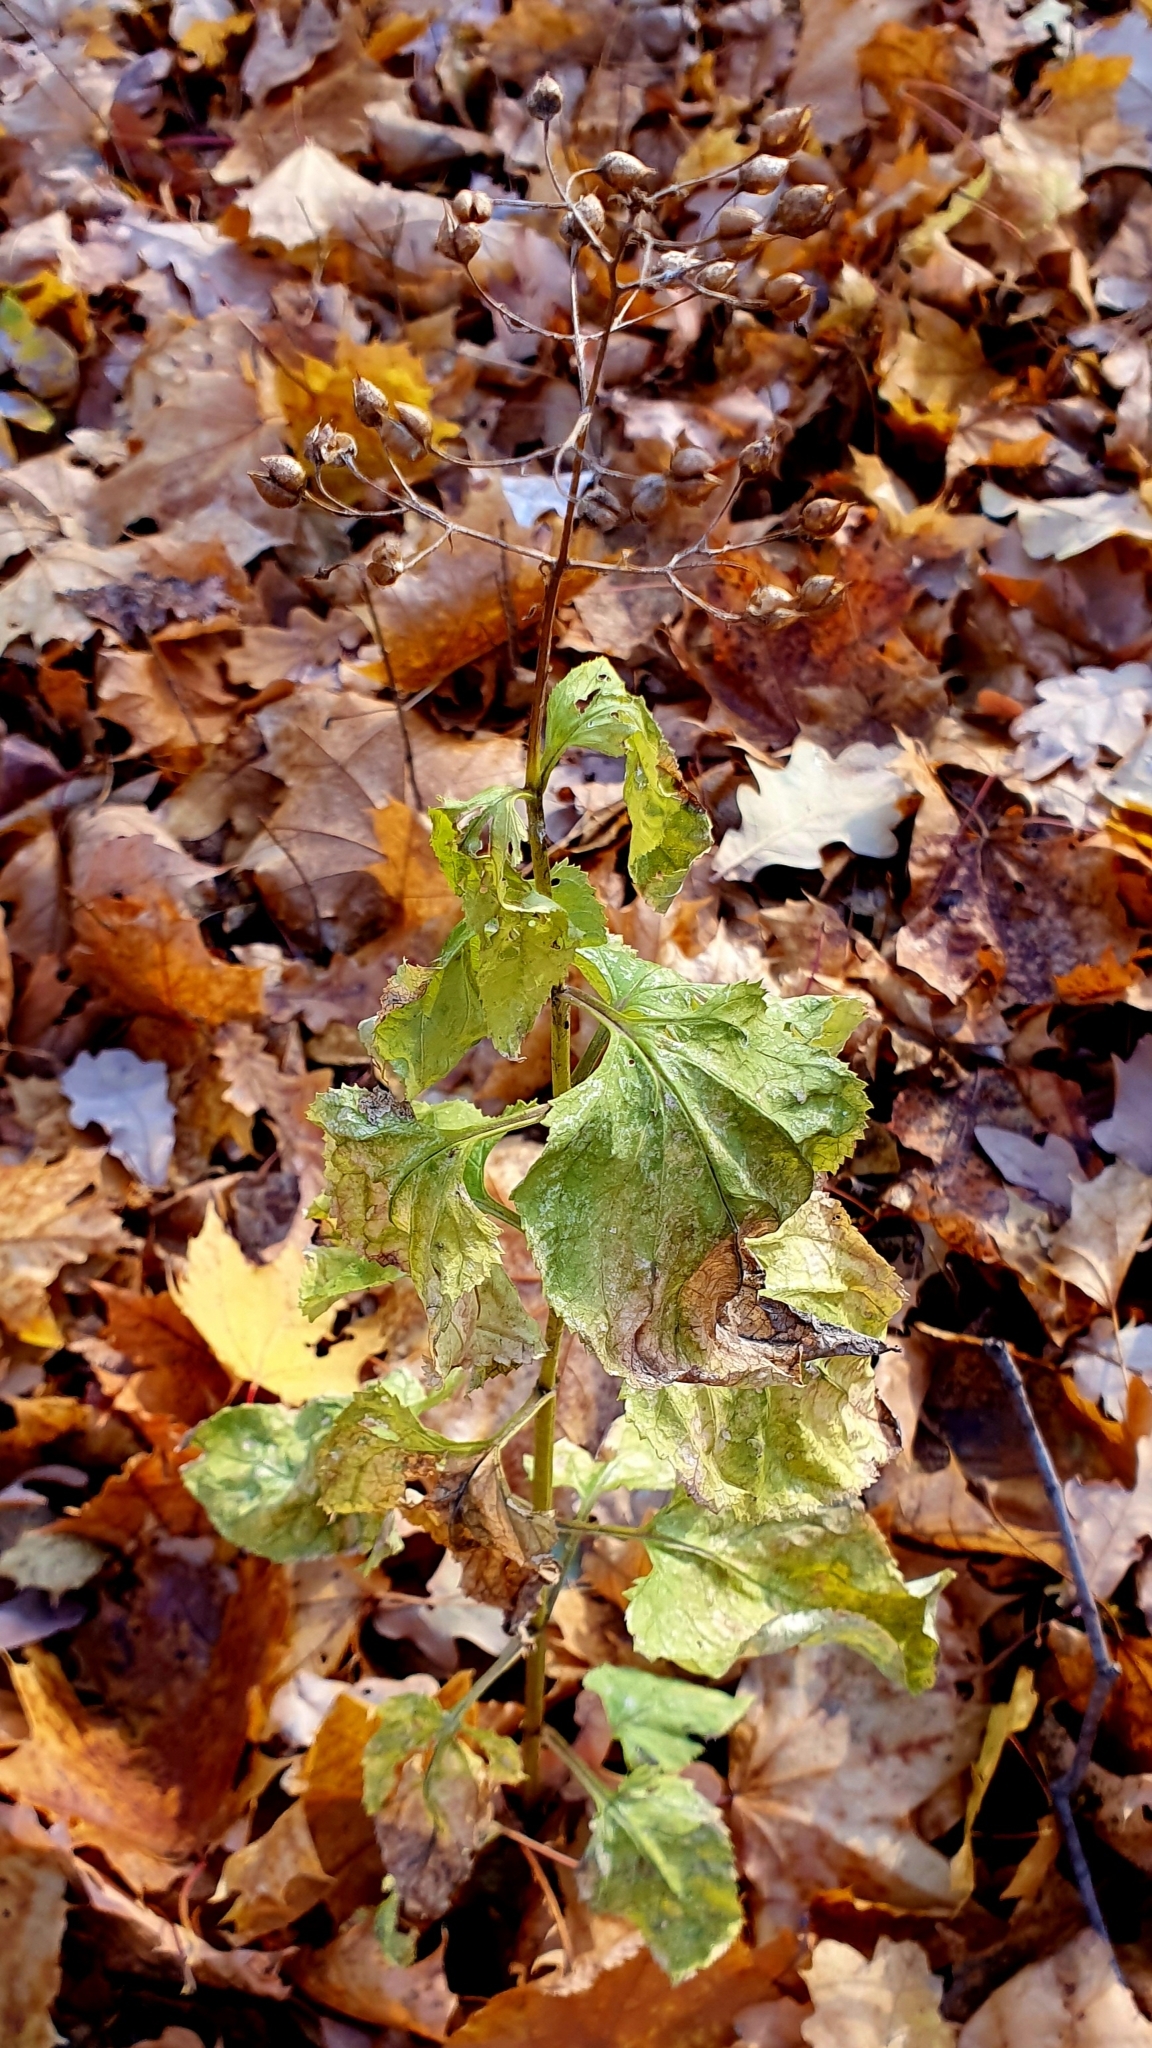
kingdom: Plantae
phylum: Tracheophyta
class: Magnoliopsida
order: Lamiales
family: Scrophulariaceae
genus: Scrophularia
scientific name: Scrophularia nodosa
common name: Common figwort
